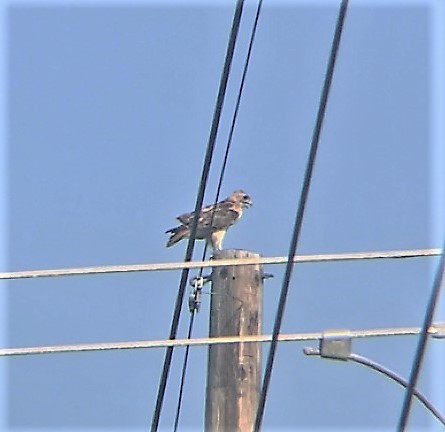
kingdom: Animalia
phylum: Chordata
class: Aves
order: Accipitriformes
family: Accipitridae
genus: Buteo
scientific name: Buteo jamaicensis
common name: Red-tailed hawk
